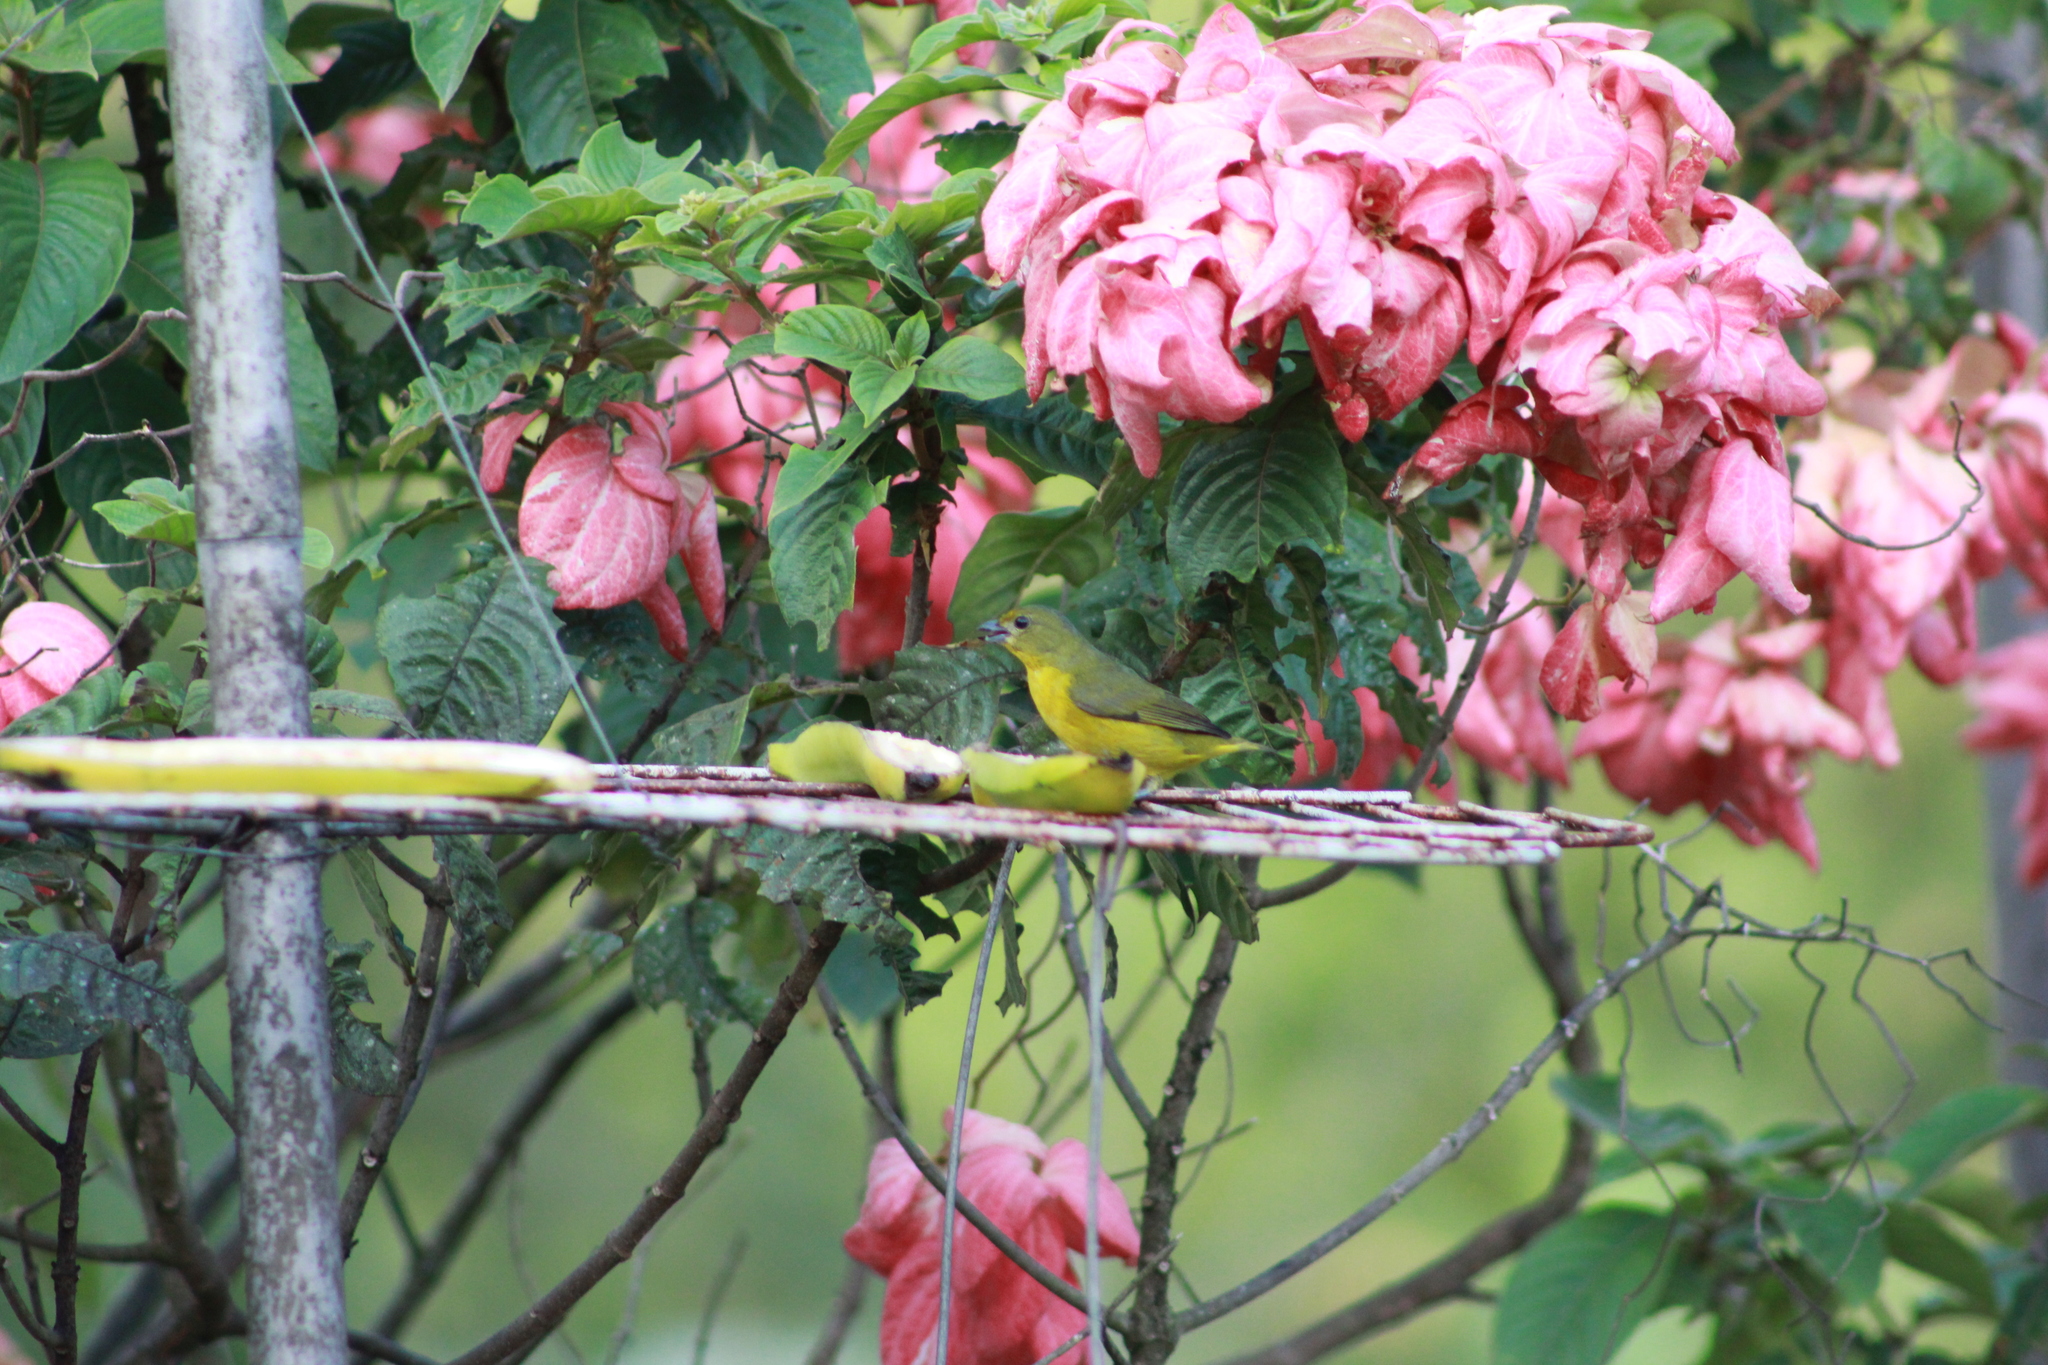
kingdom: Animalia
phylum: Chordata
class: Aves
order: Passeriformes
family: Fringillidae
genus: Euphonia
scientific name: Euphonia violacea
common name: Violaceous euphonia
